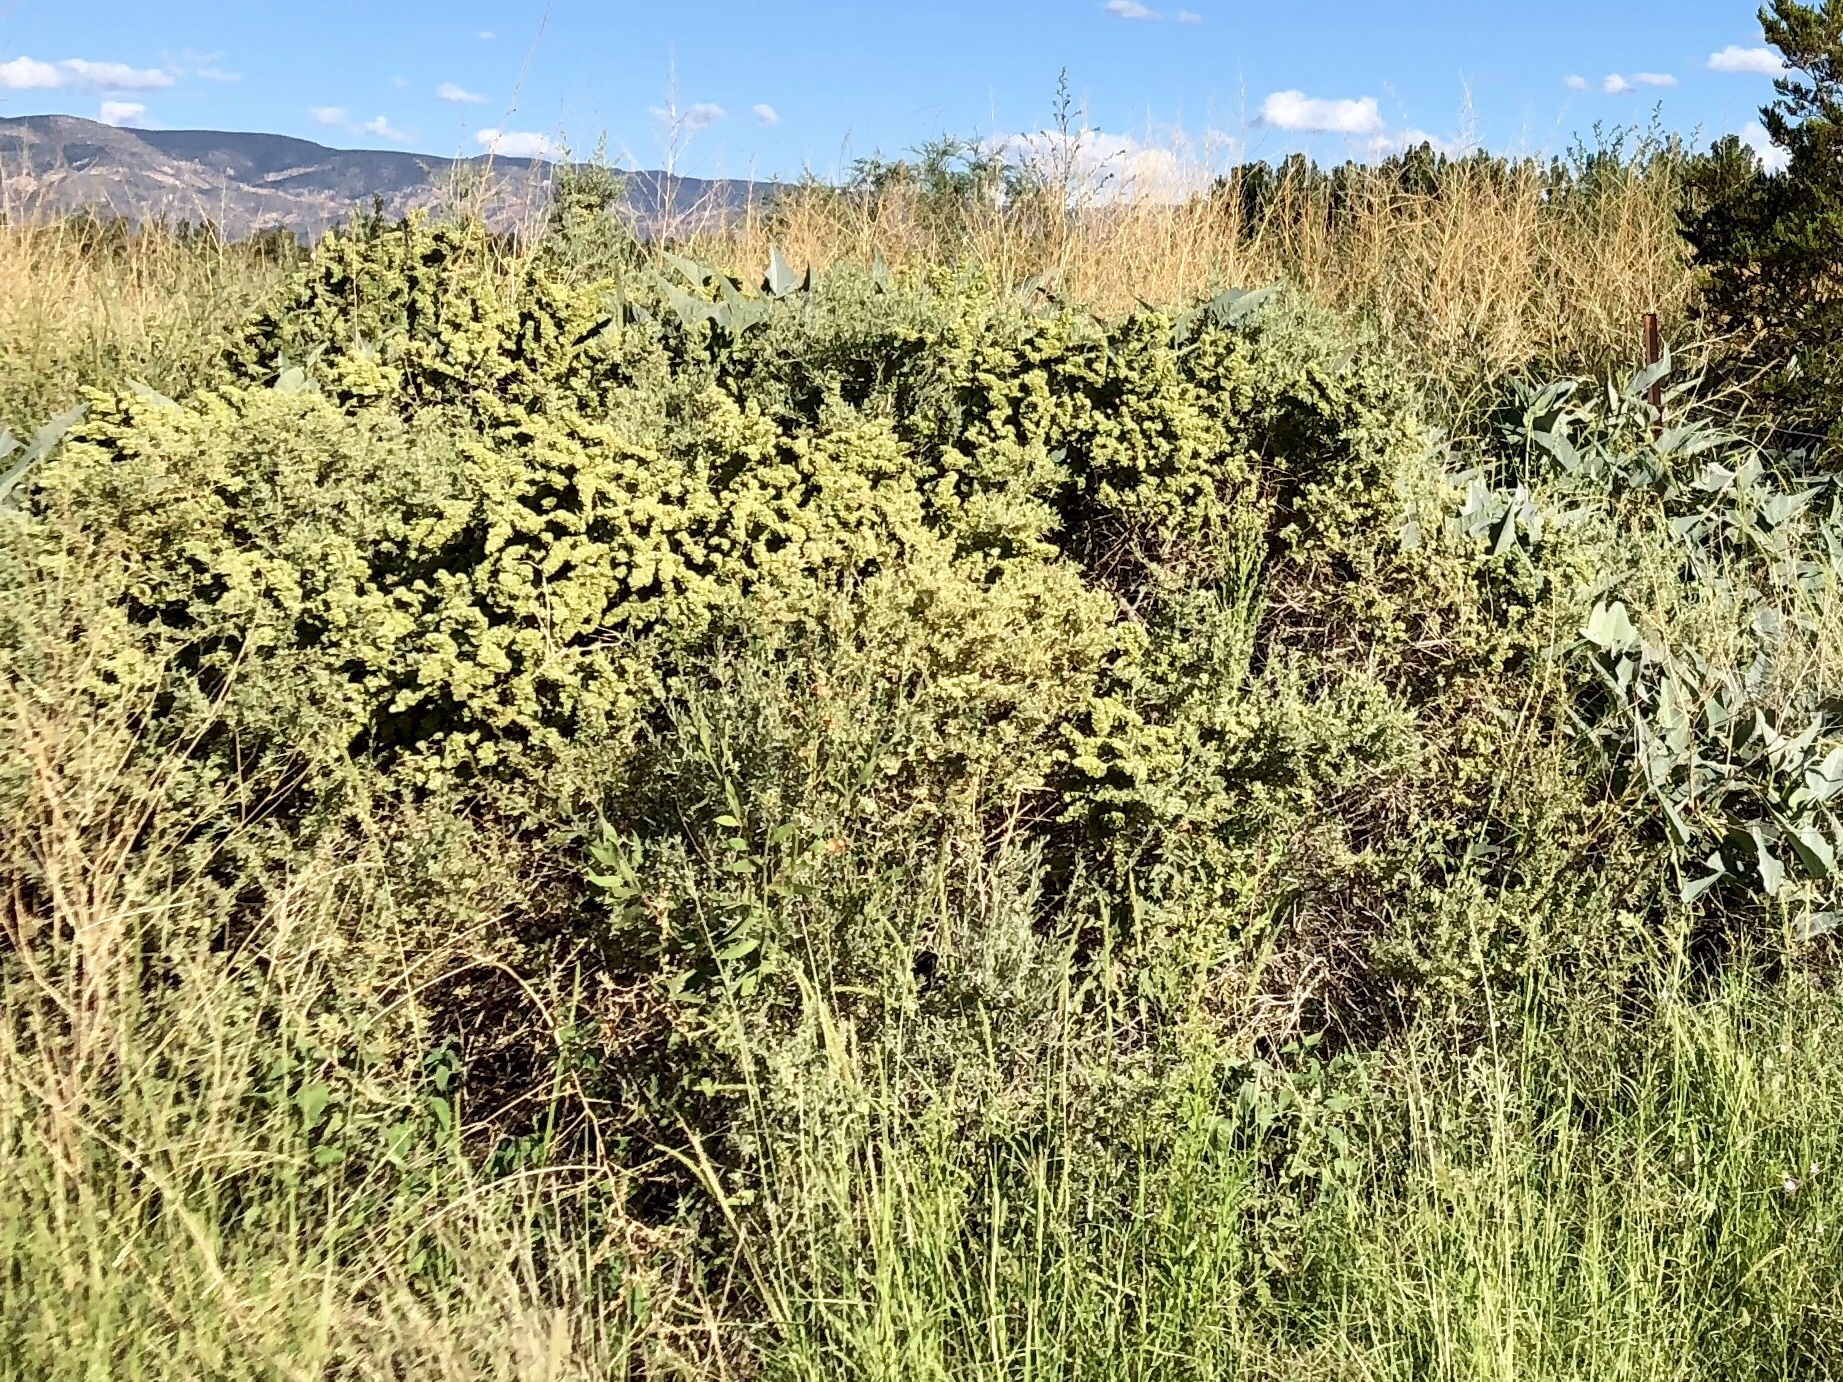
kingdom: Plantae
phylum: Tracheophyta
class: Magnoliopsida
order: Caryophyllales
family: Amaranthaceae
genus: Atriplex
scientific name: Atriplex canescens
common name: Four-wing saltbush
